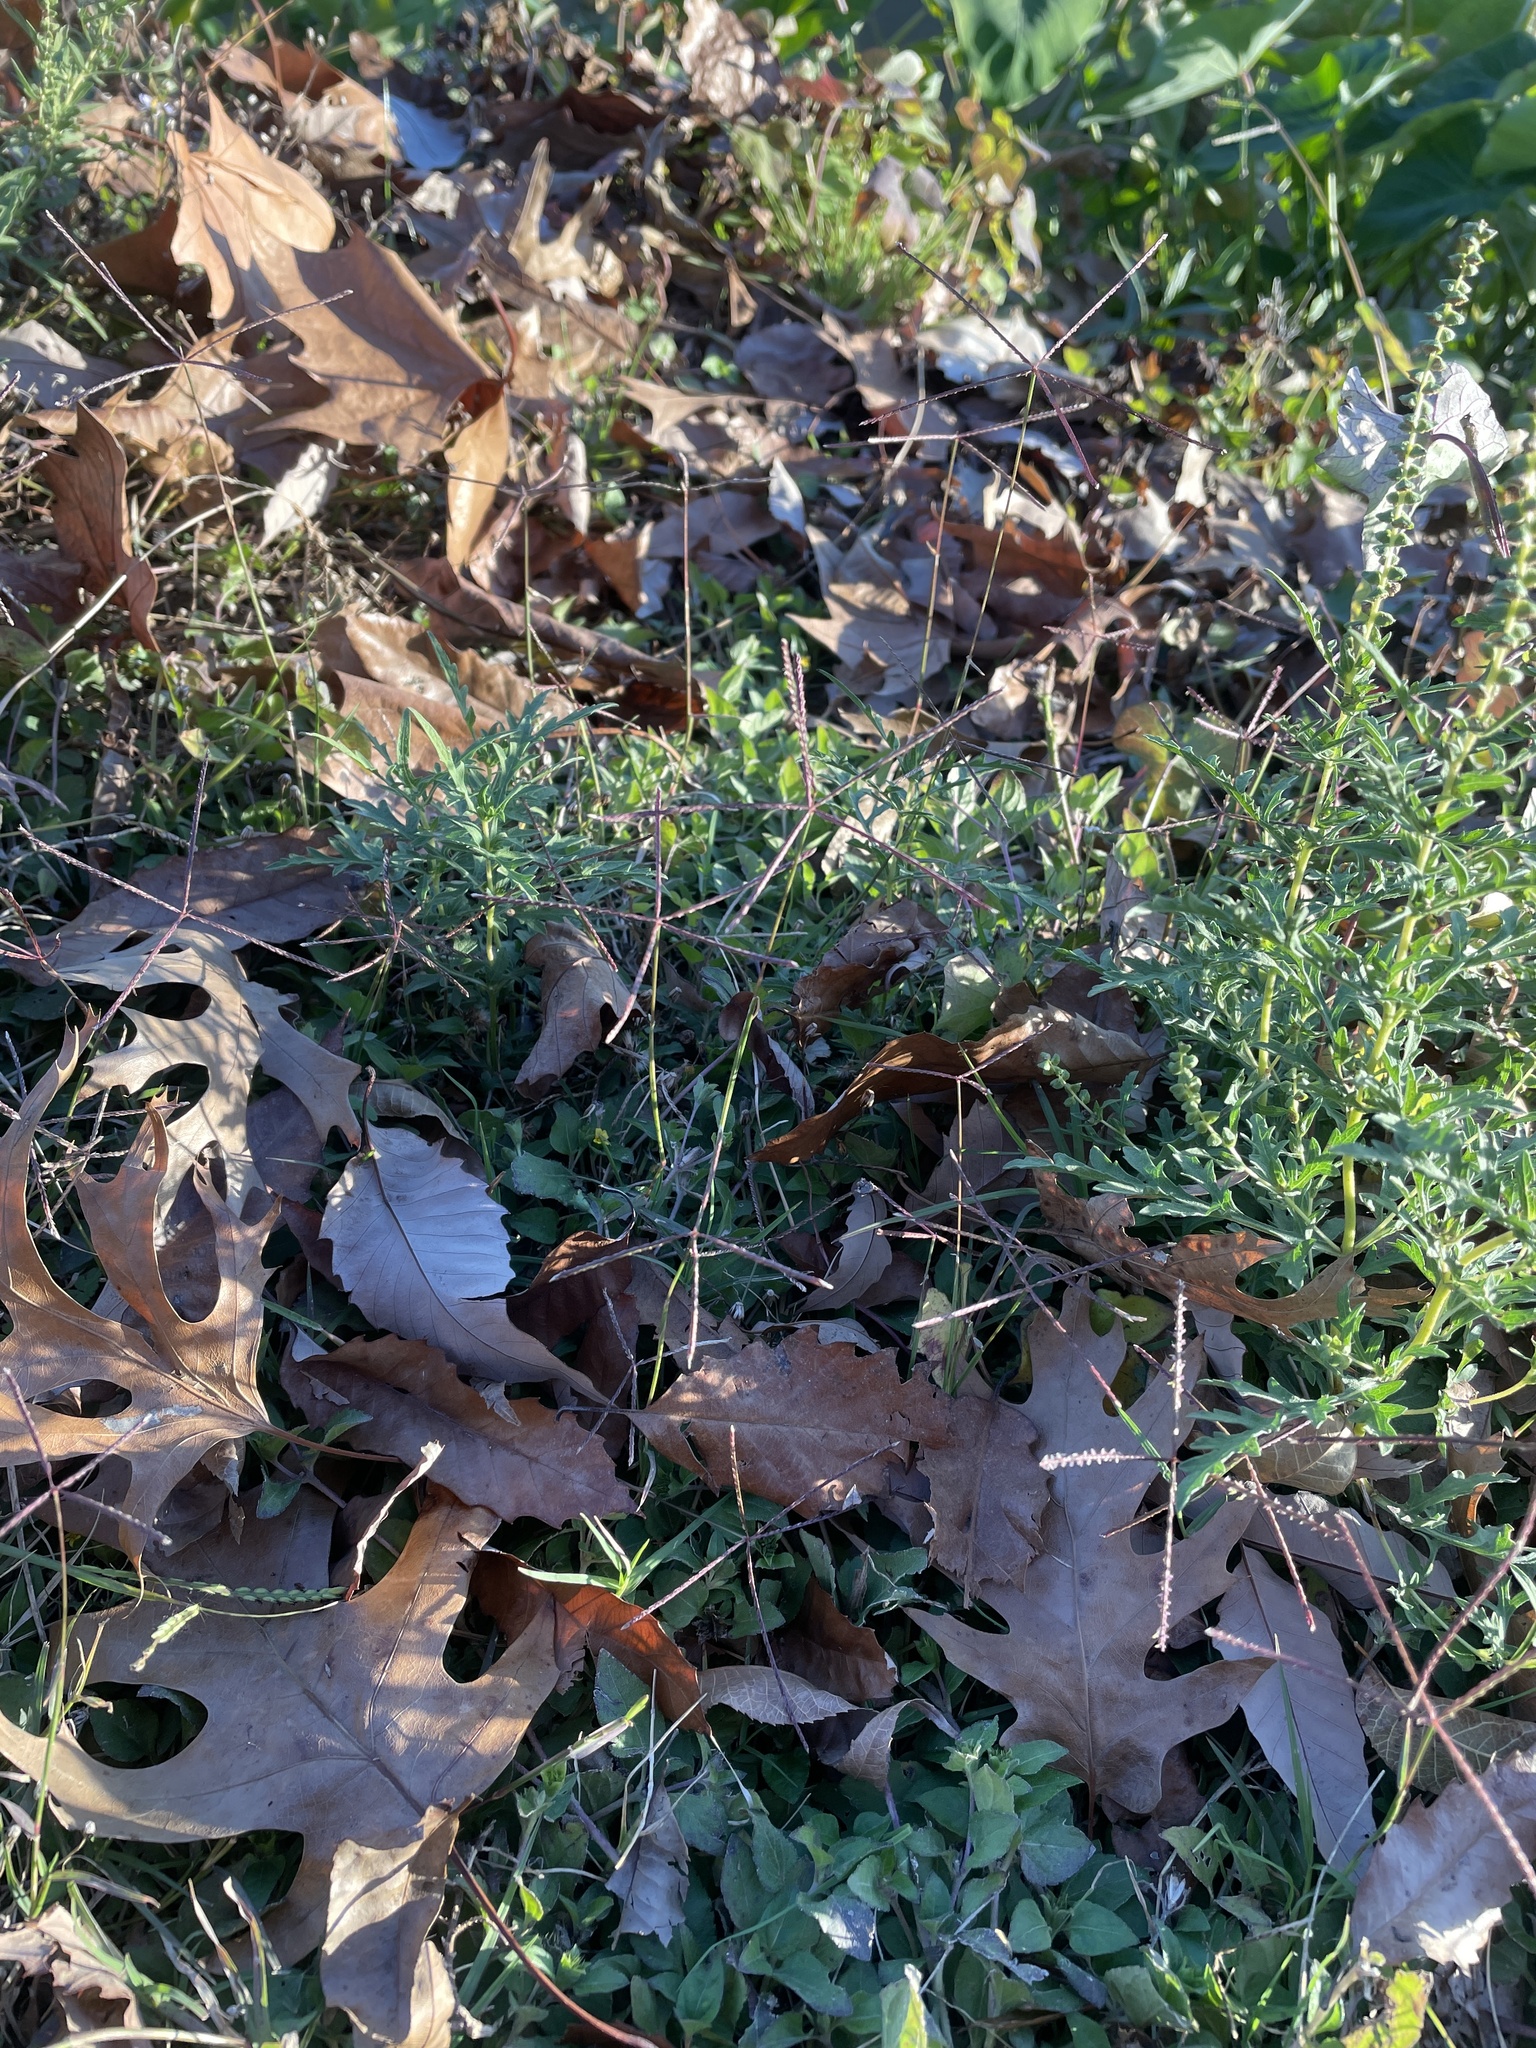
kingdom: Plantae
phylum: Tracheophyta
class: Liliopsida
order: Poales
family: Poaceae
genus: Cynodon
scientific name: Cynodon dactylon
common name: Bermuda grass
